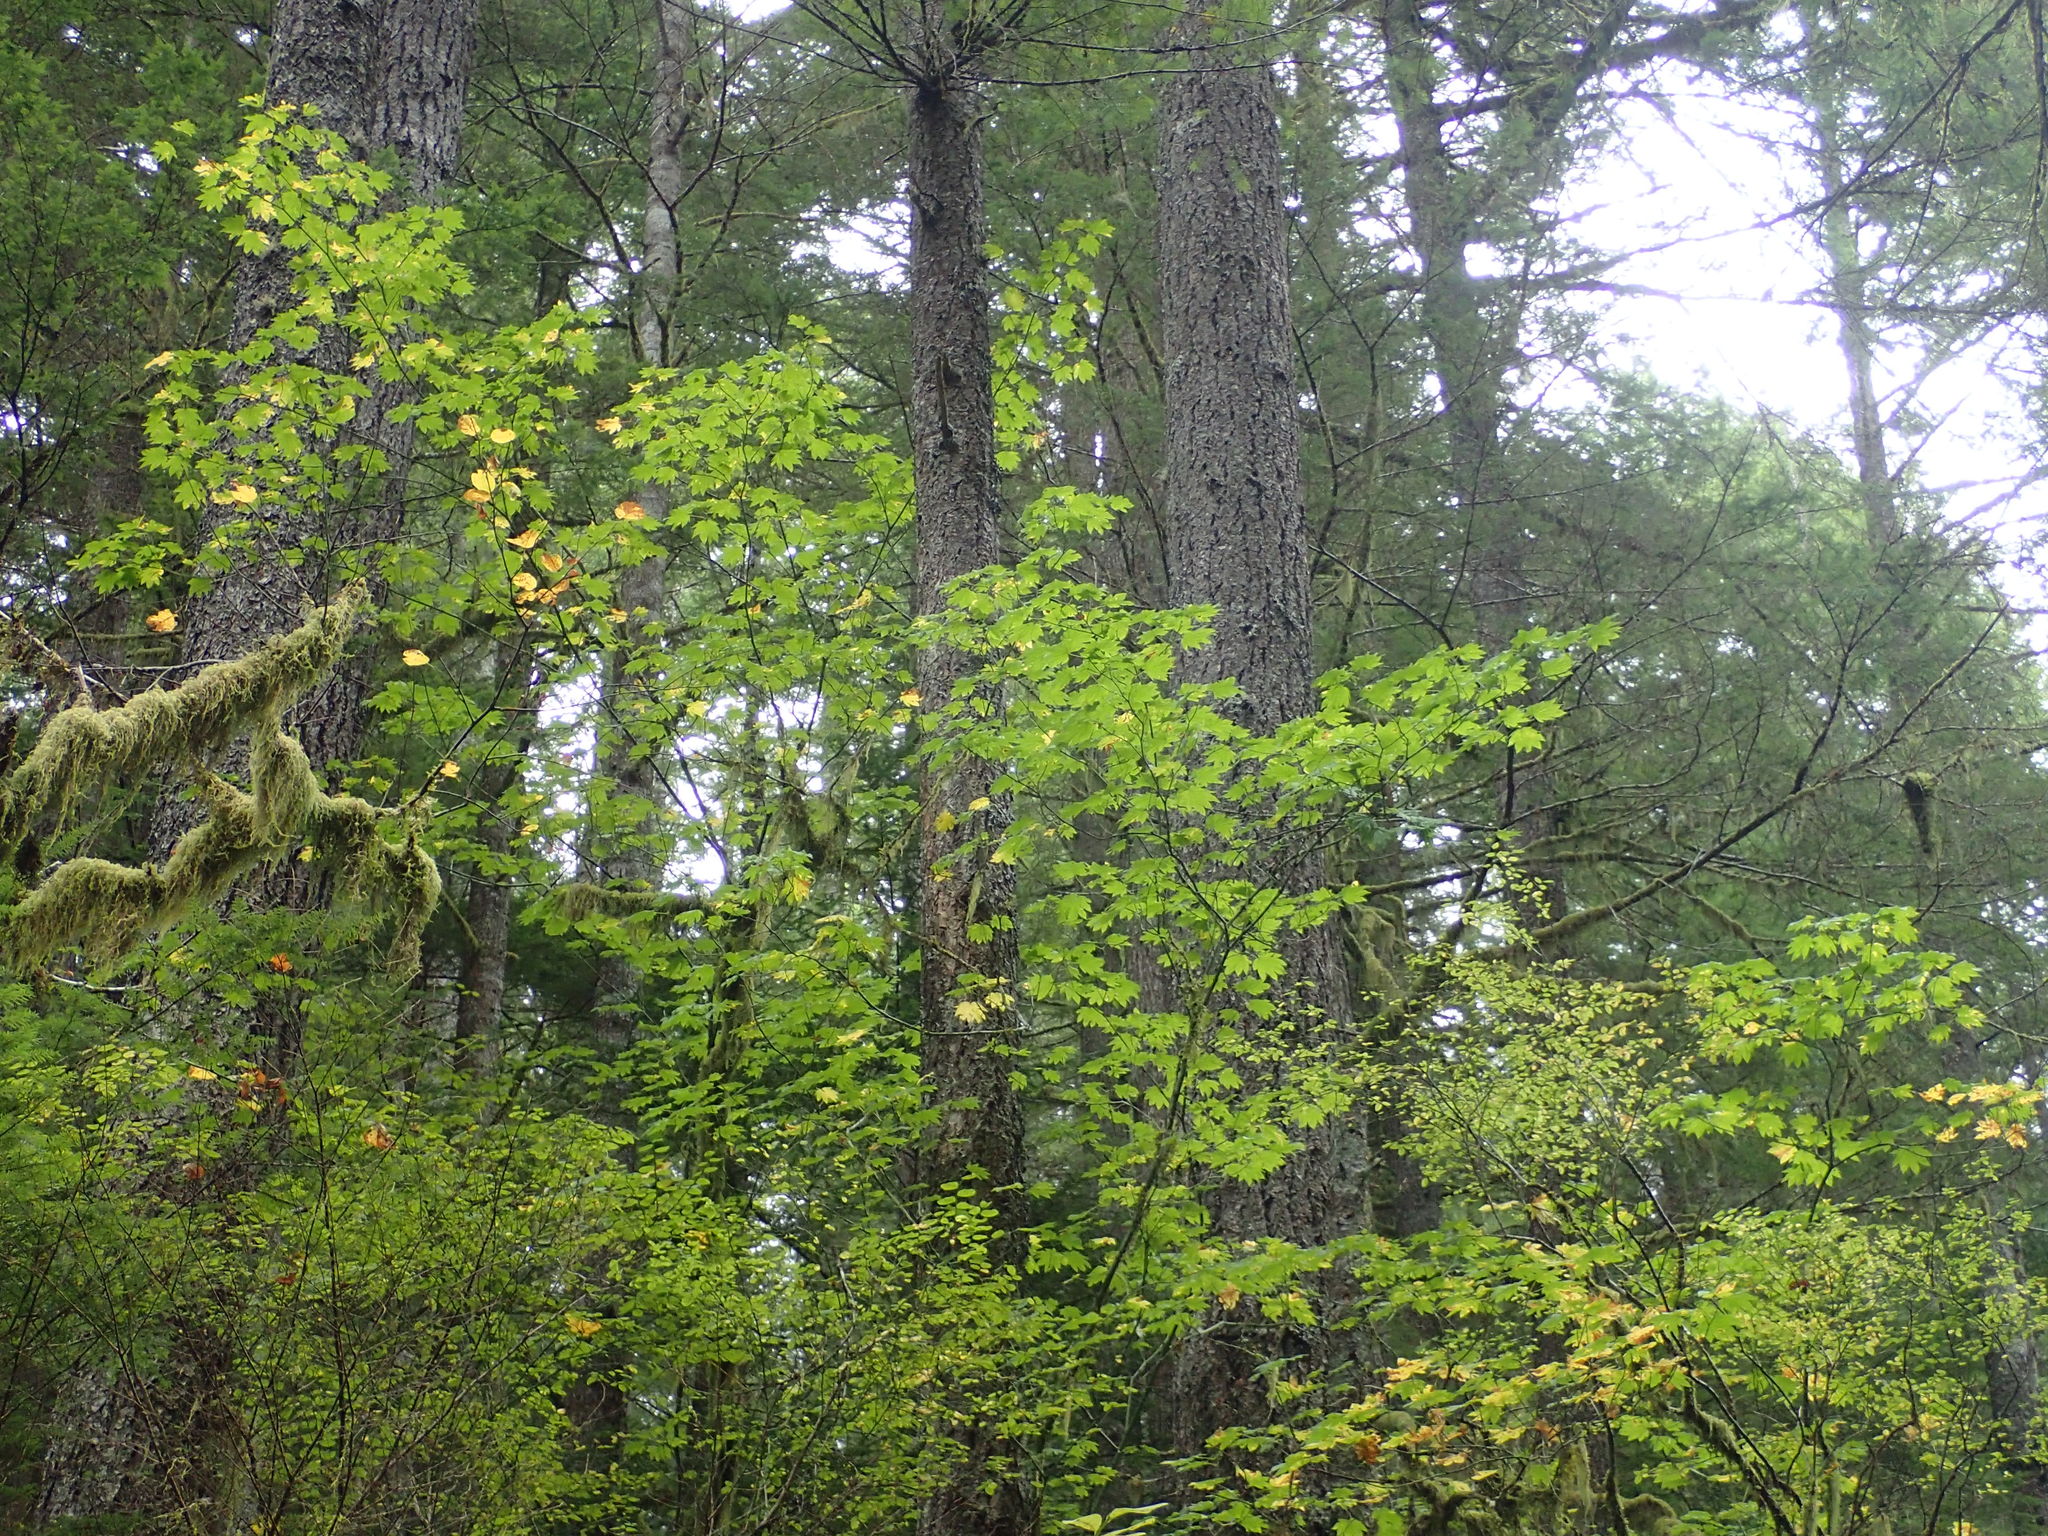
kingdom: Plantae
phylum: Tracheophyta
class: Magnoliopsida
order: Sapindales
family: Sapindaceae
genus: Acer
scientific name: Acer circinatum
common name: Vine maple
